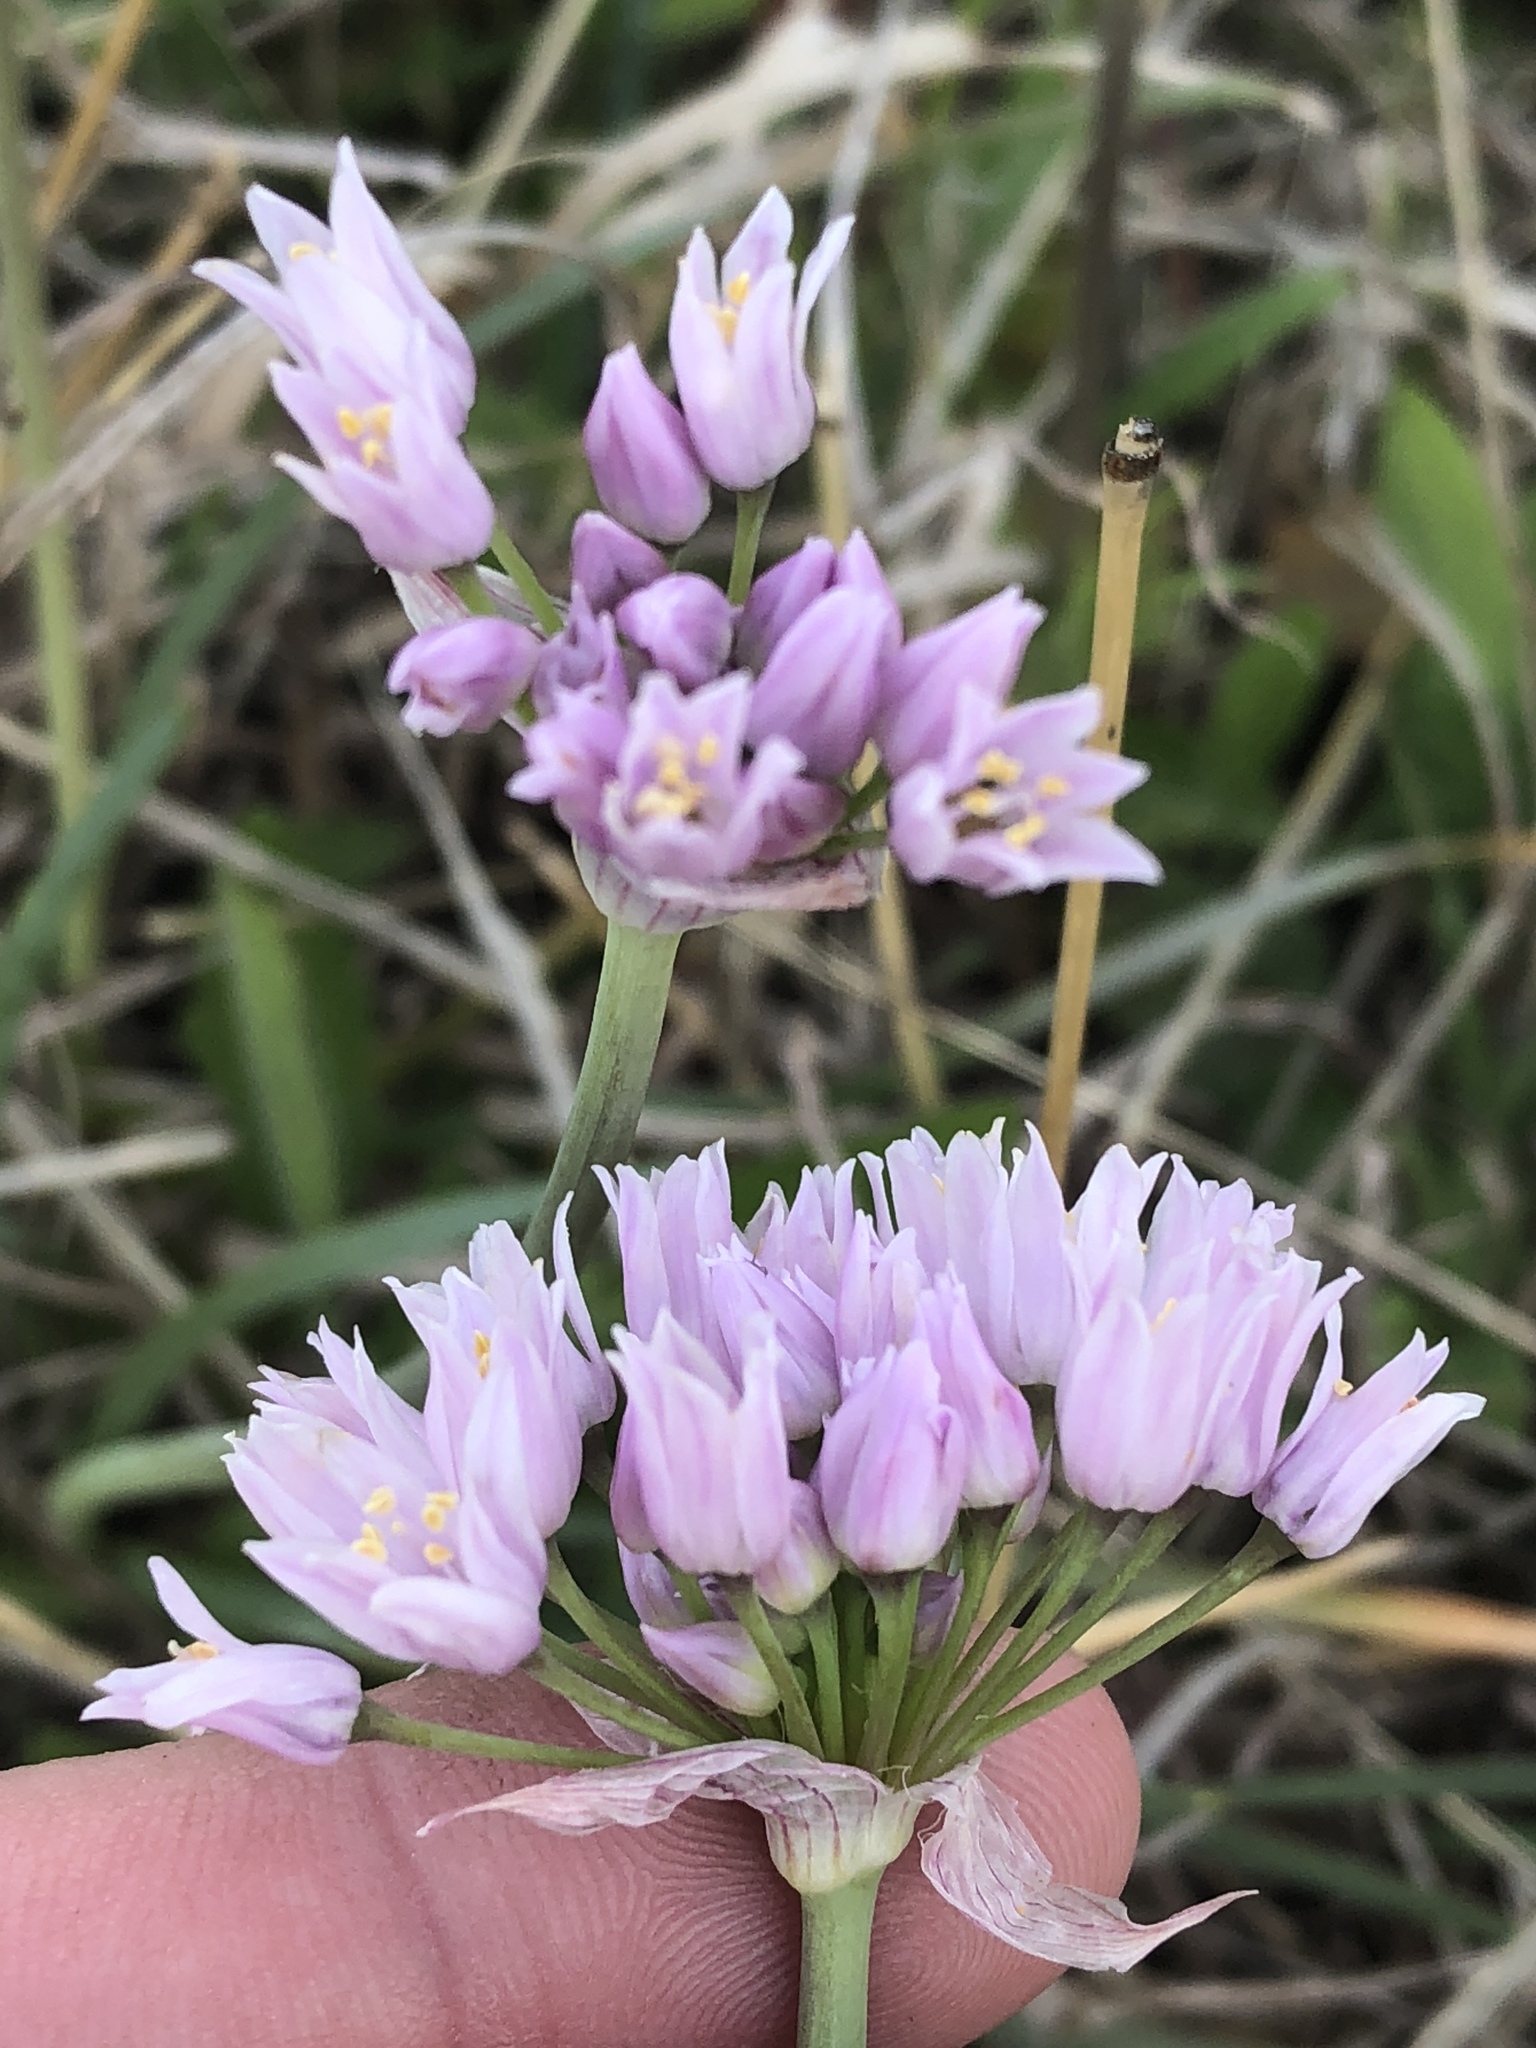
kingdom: Plantae
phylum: Tracheophyta
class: Liliopsida
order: Asparagales
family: Amaryllidaceae
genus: Allium
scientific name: Allium drummondii
